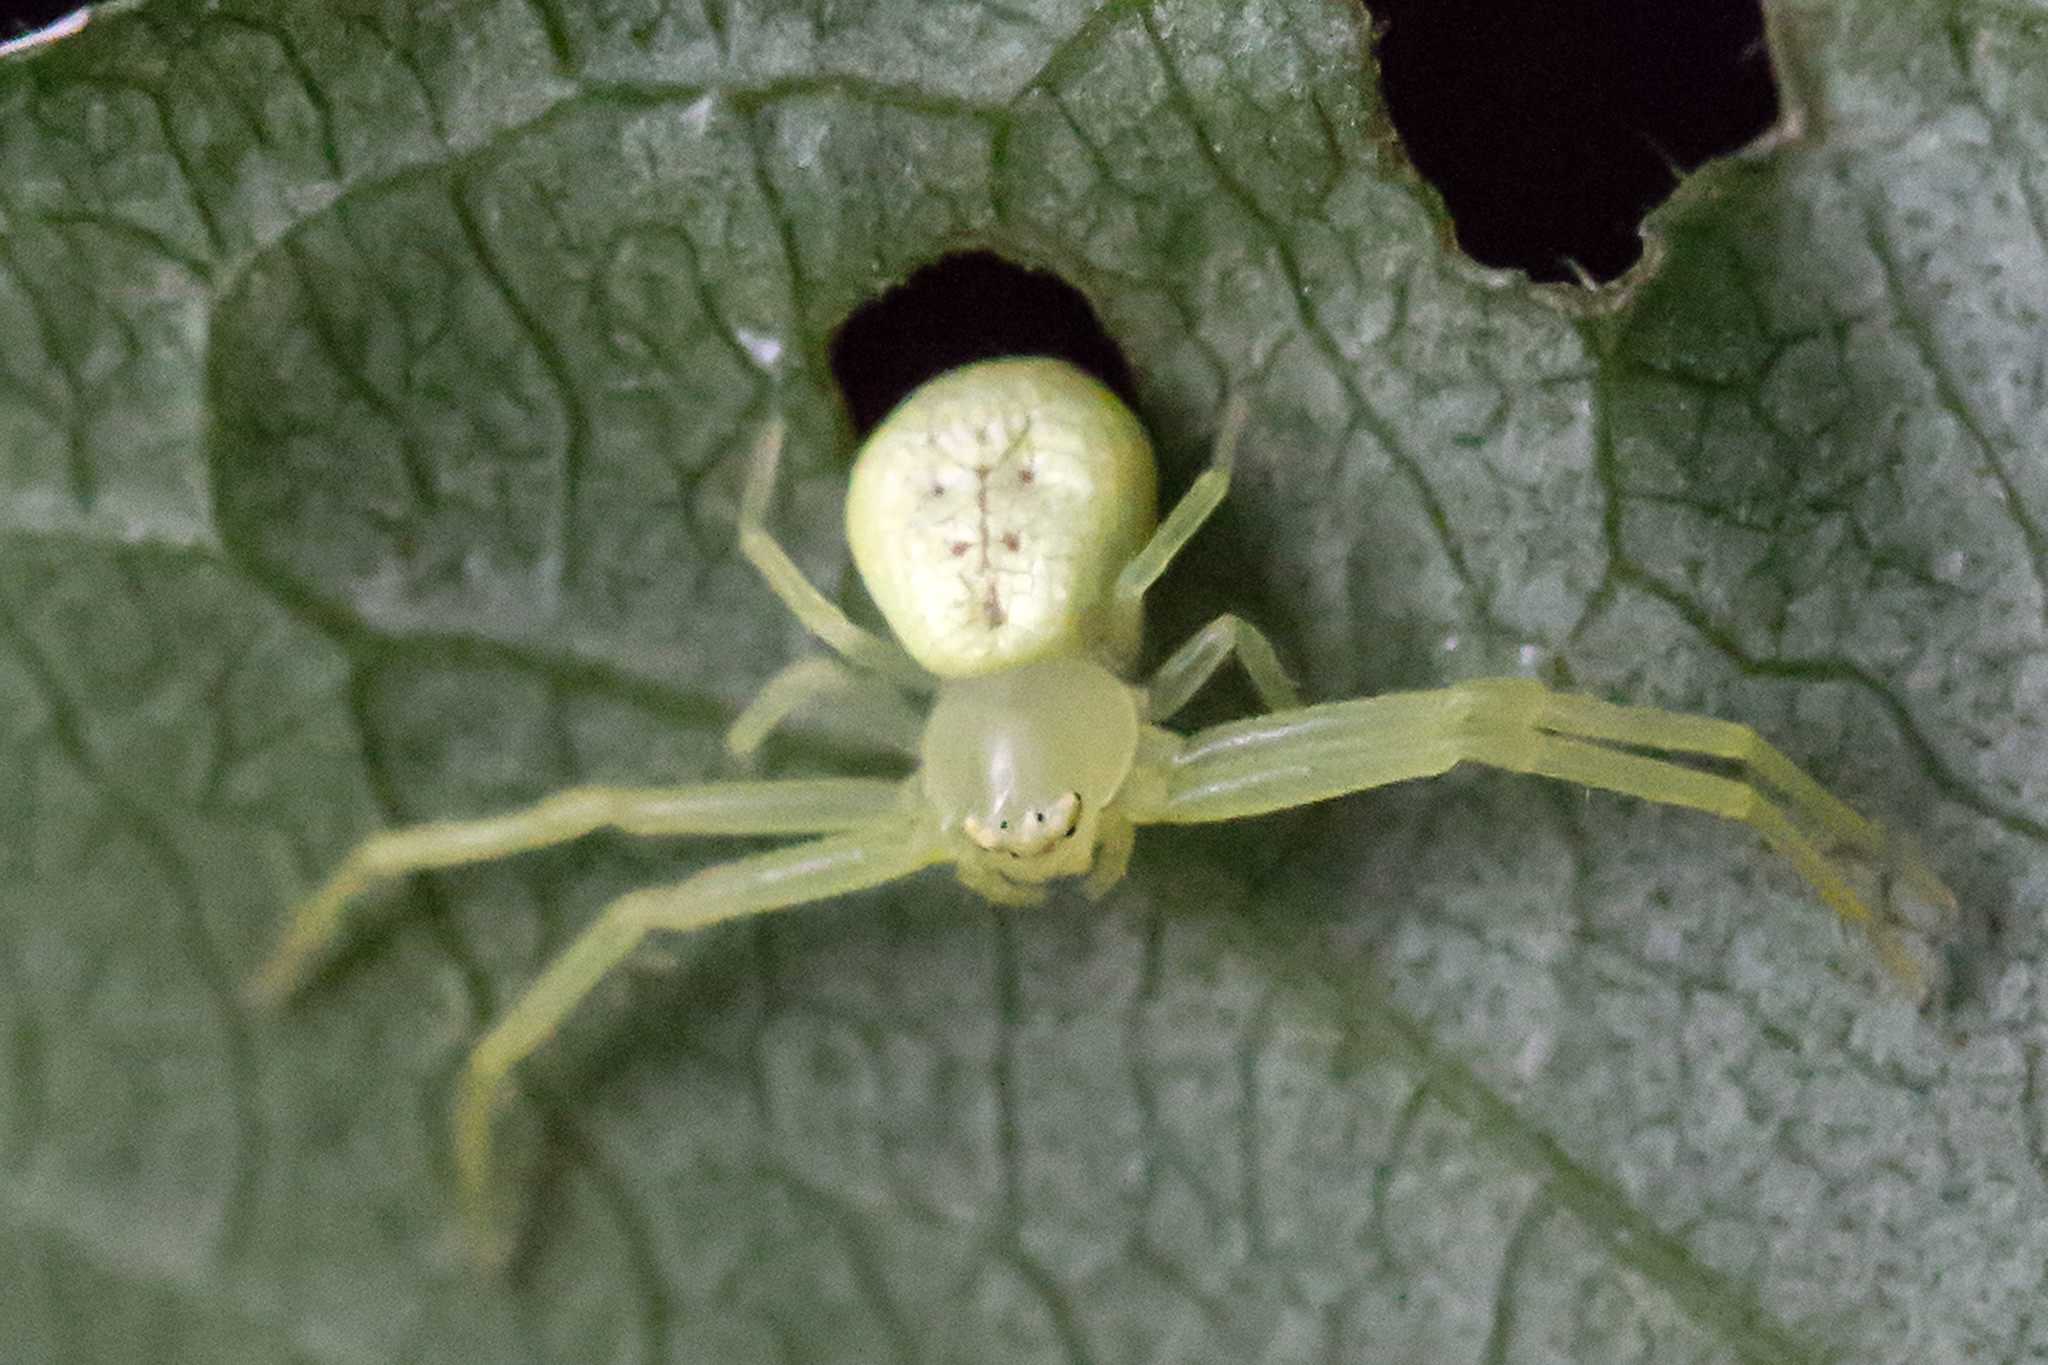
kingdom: Animalia
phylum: Arthropoda
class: Arachnida
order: Araneae
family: Thomisidae
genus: Misumessus
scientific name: Misumessus oblongus
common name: American green crab spider
